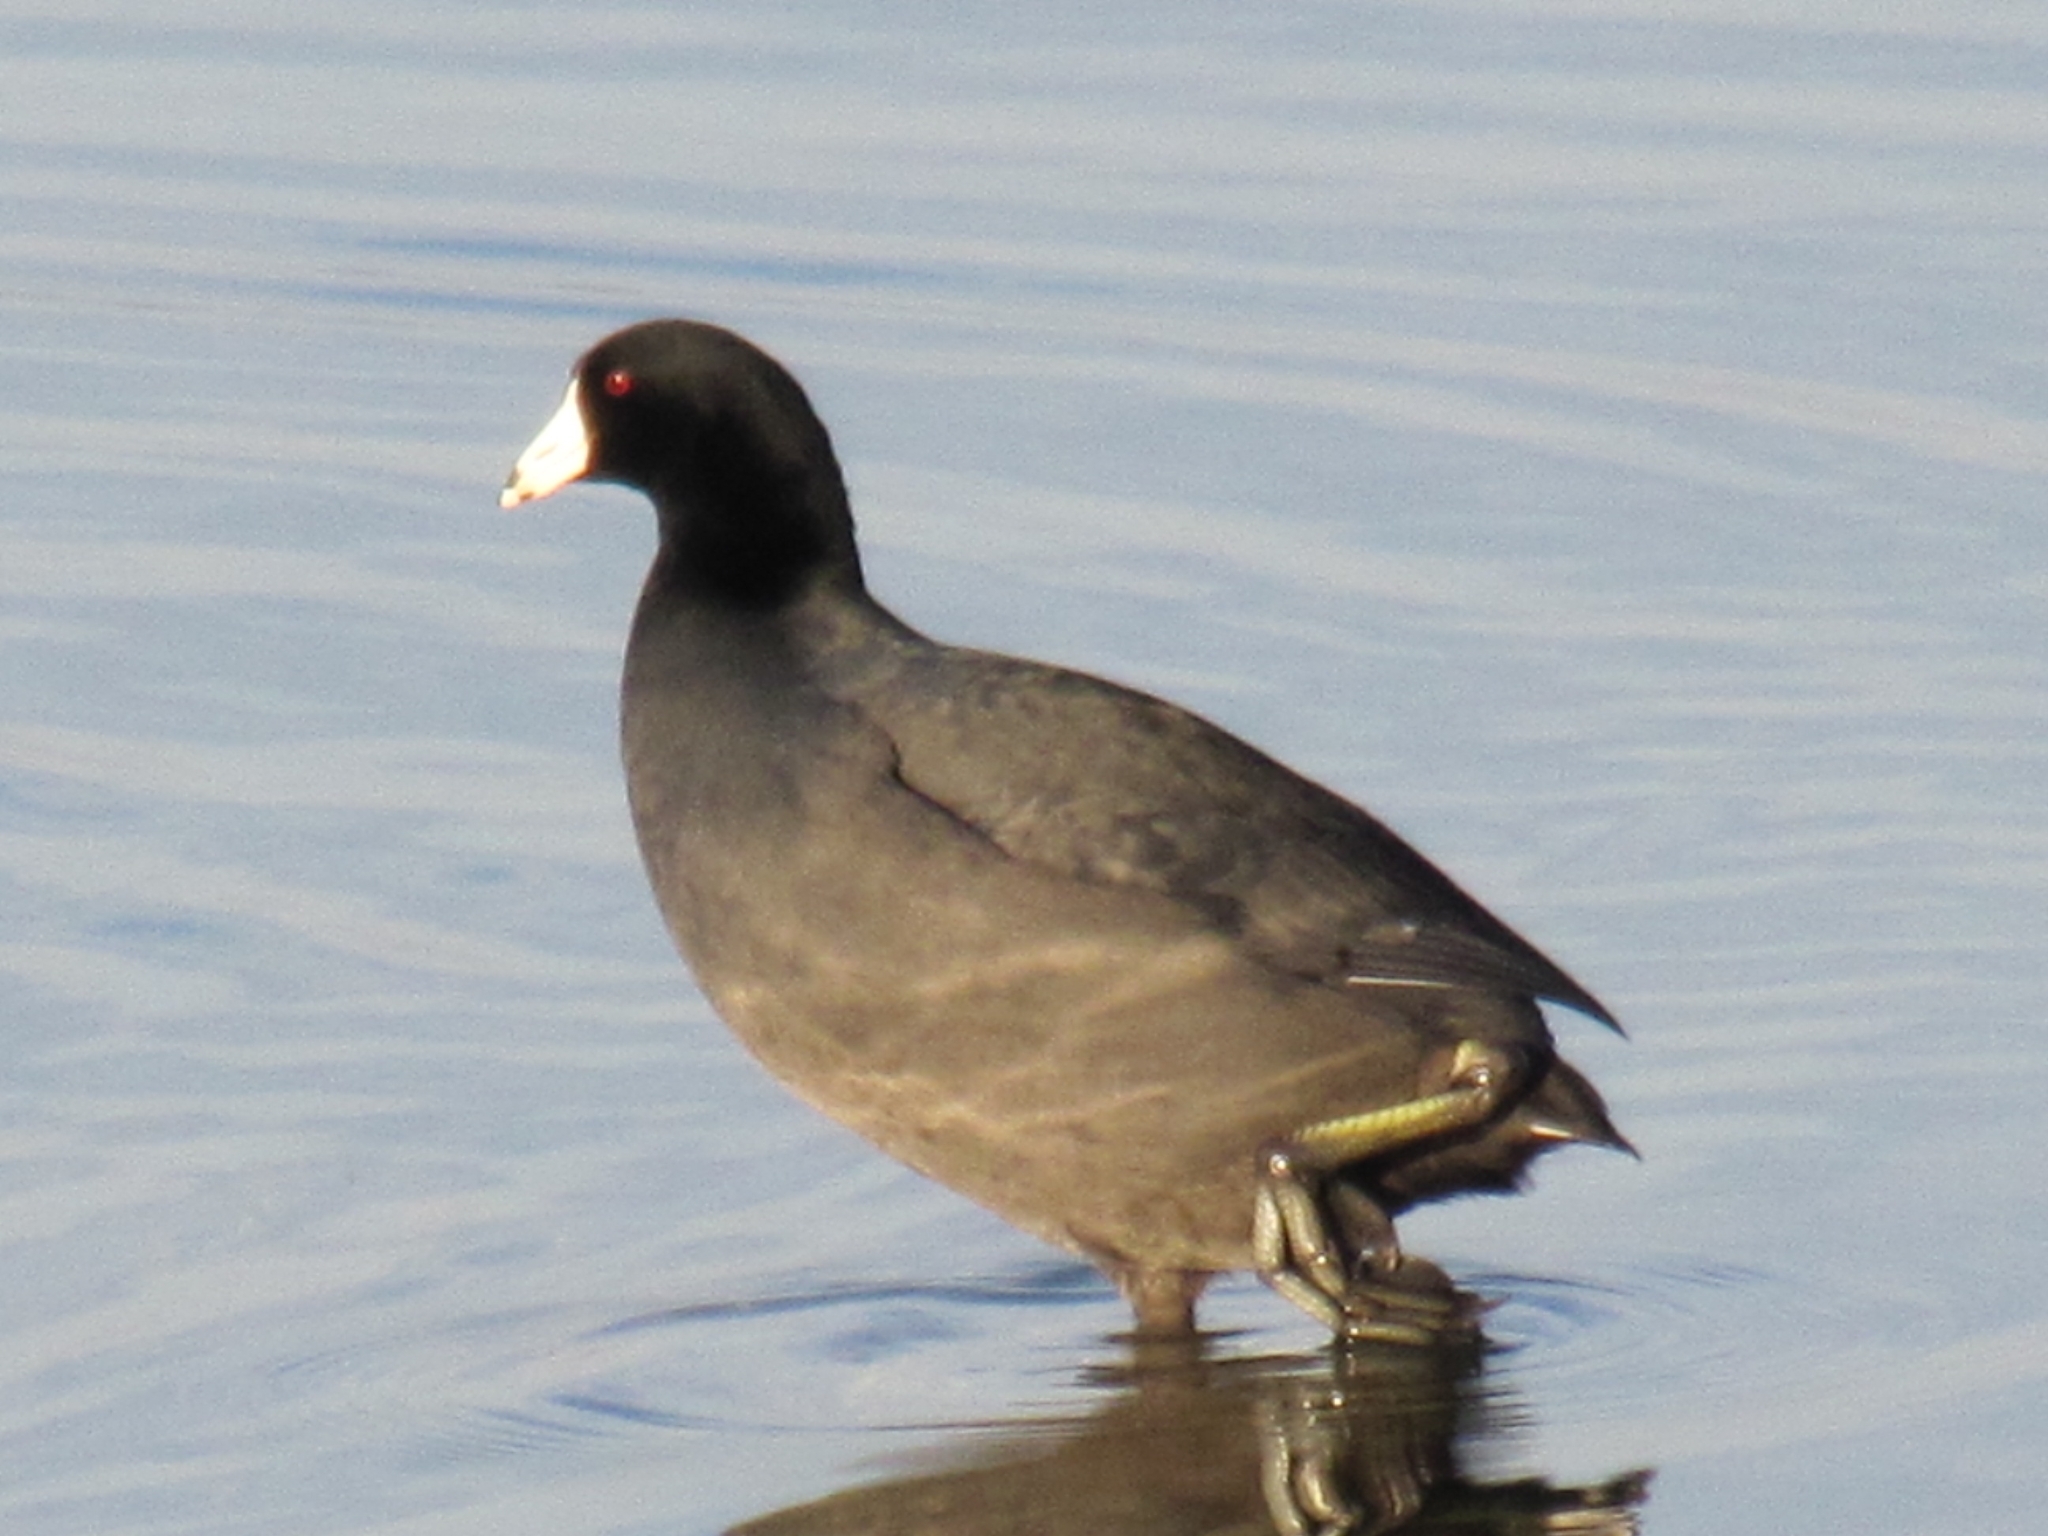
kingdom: Animalia
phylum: Chordata
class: Aves
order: Gruiformes
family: Rallidae
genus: Fulica
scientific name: Fulica americana
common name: American coot
